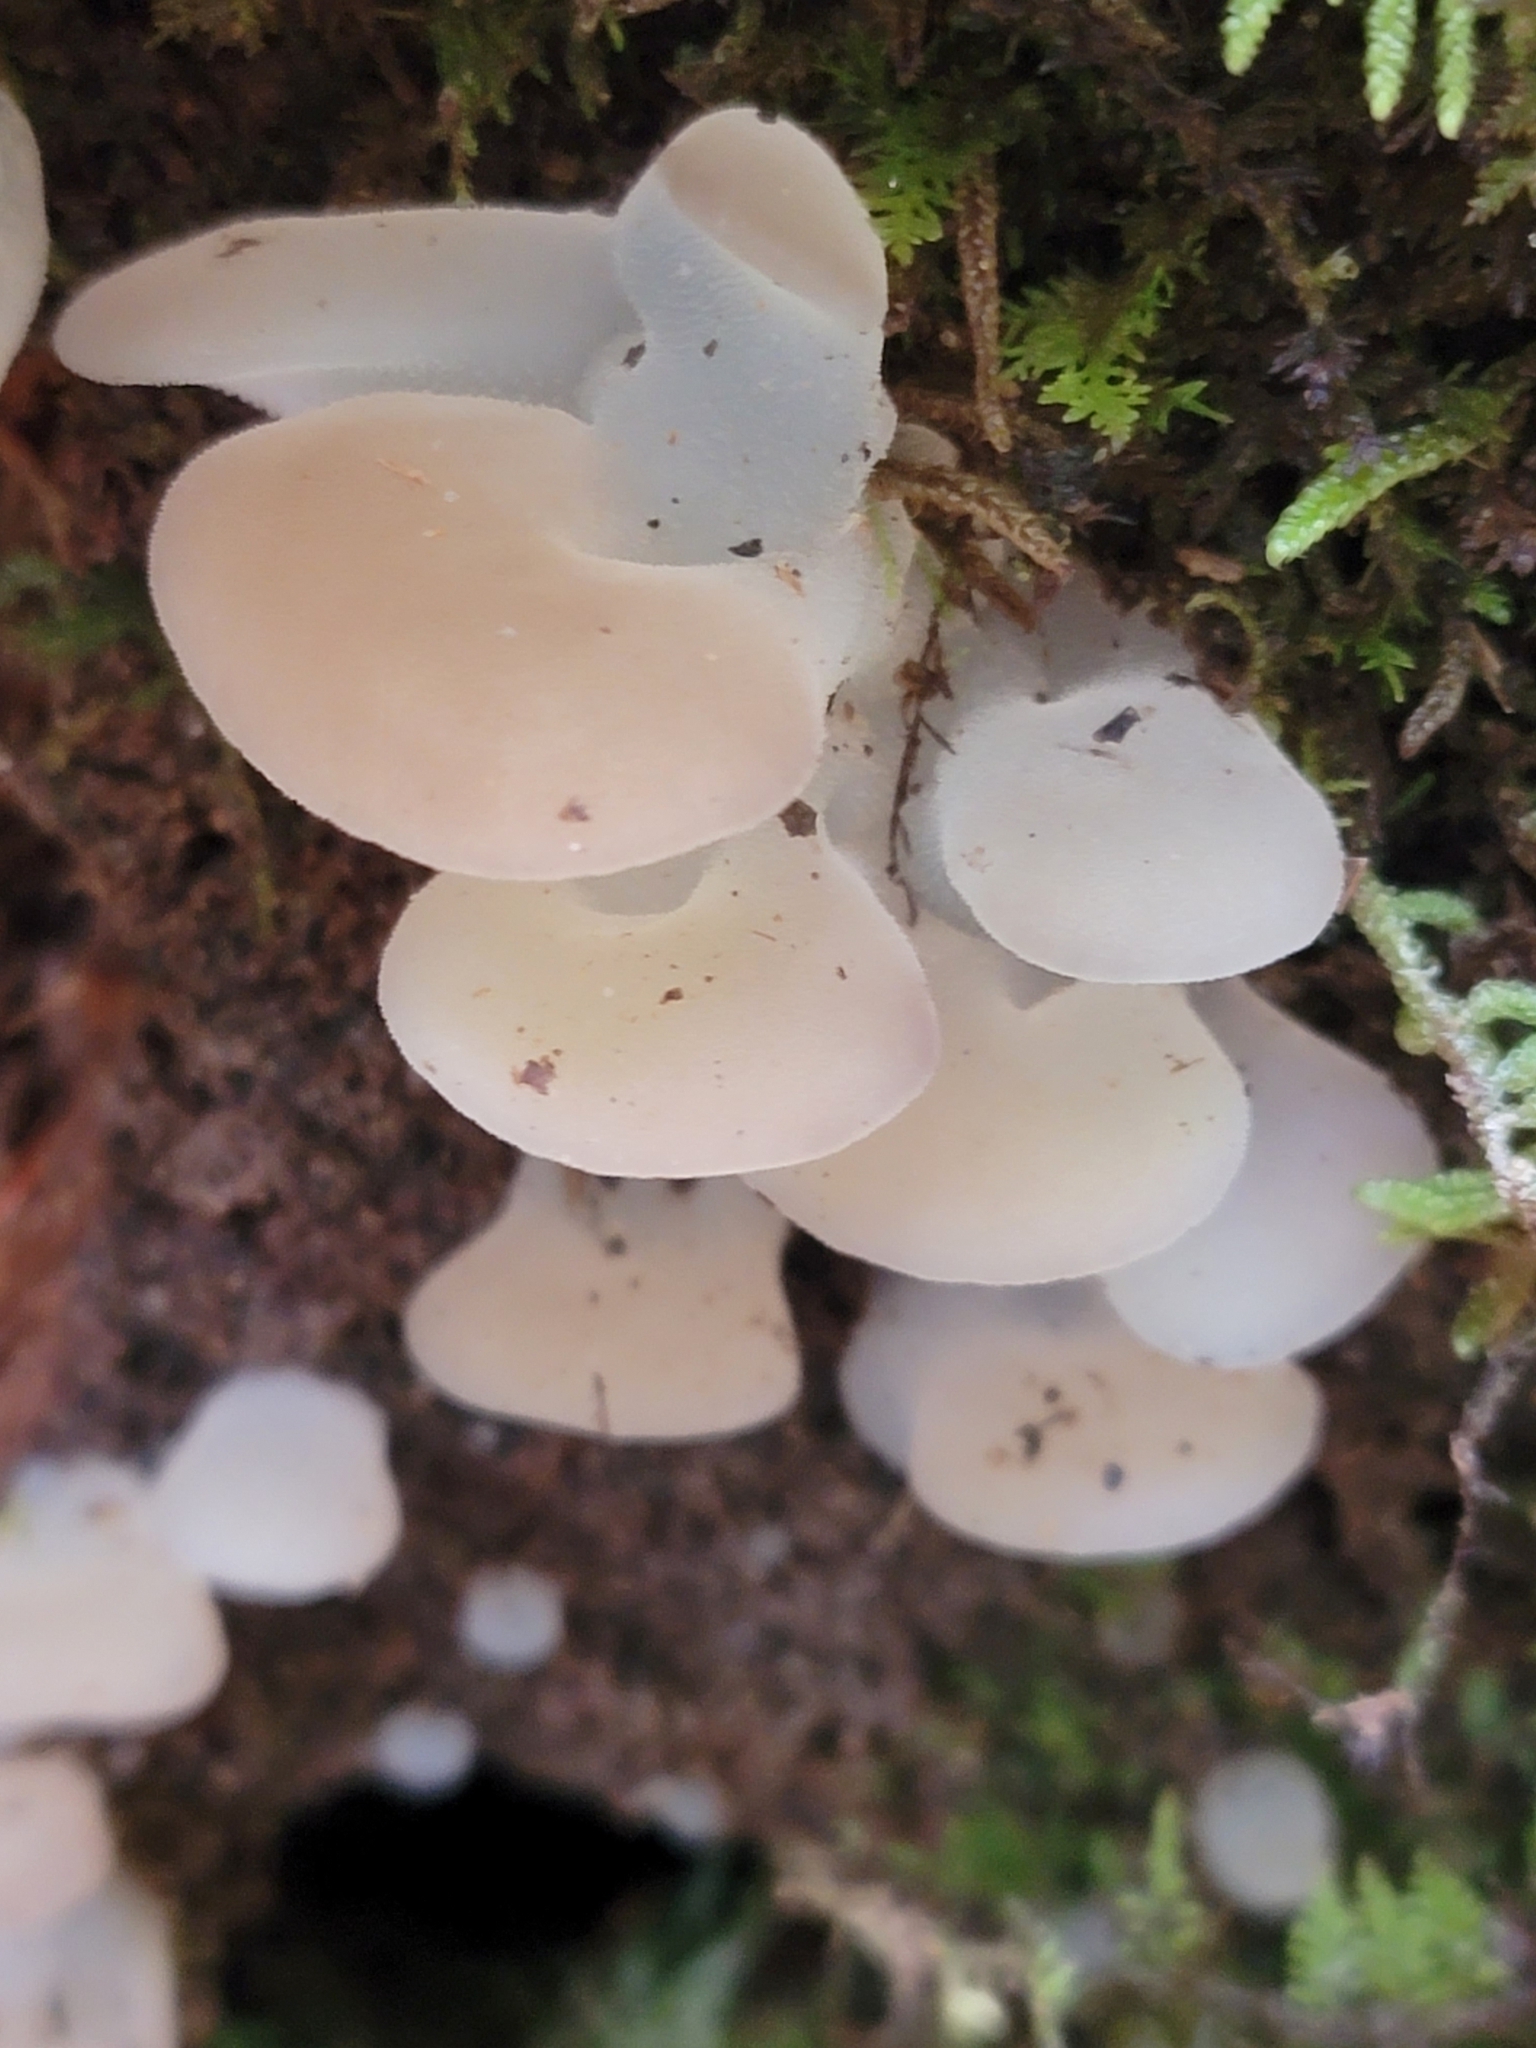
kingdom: Fungi
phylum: Basidiomycota
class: Agaricomycetes
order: Auriculariales
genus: Pseudohydnum
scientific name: Pseudohydnum gelatinosum
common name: Jelly tongue
